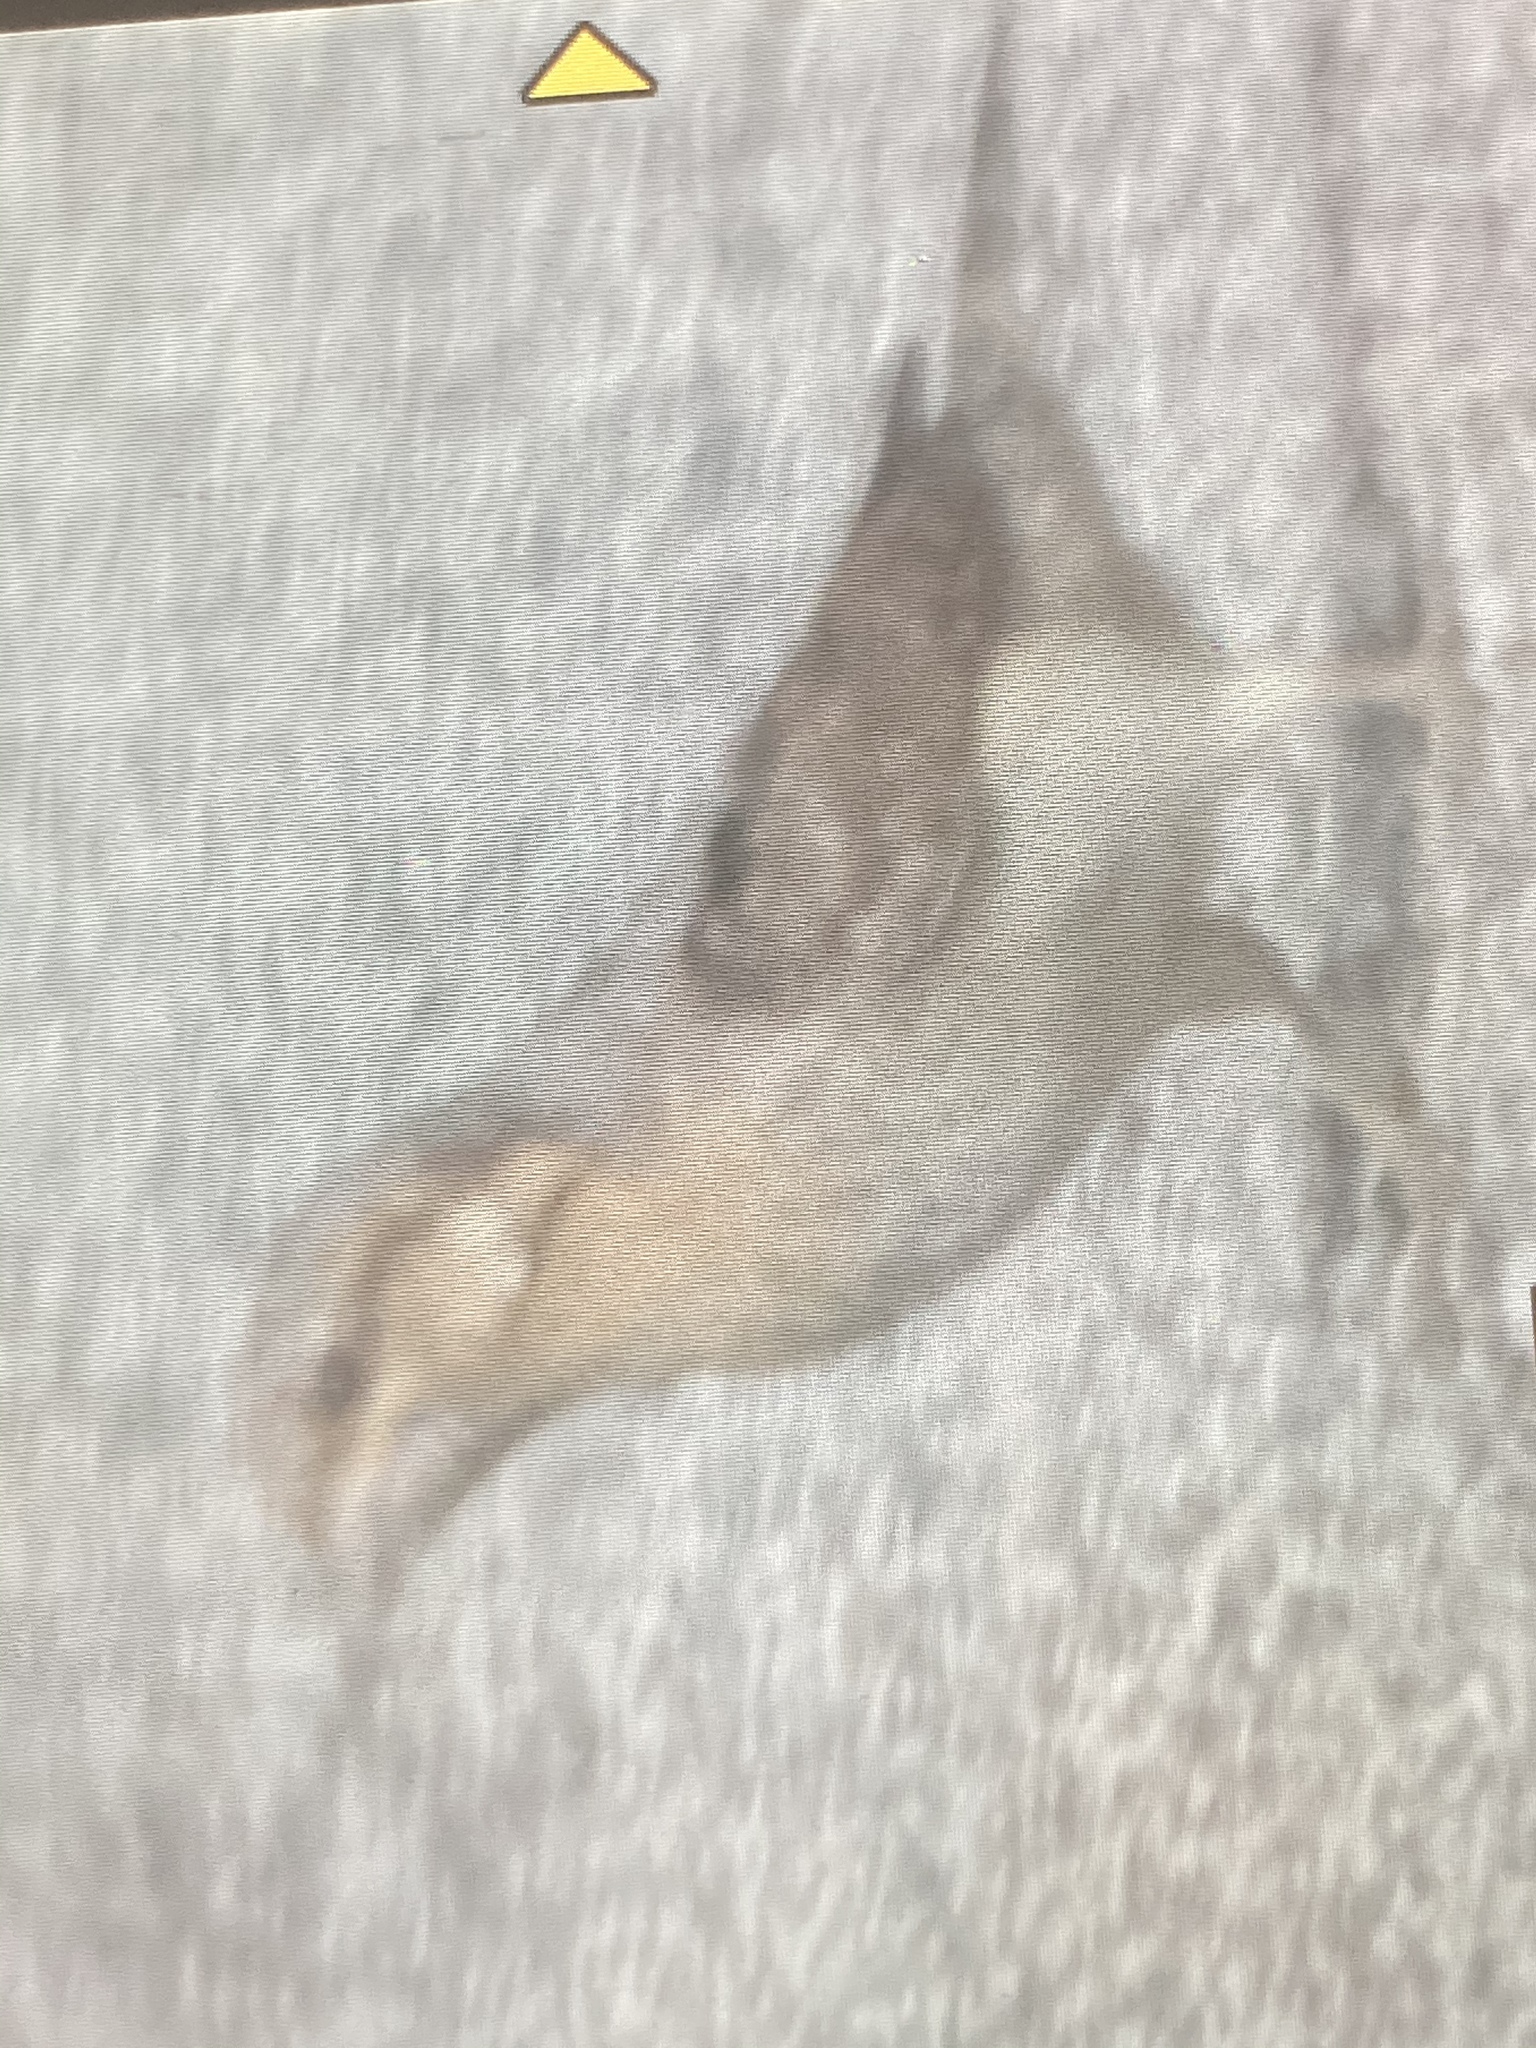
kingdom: Animalia
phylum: Chordata
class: Aves
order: Piciformes
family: Picidae
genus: Jynx
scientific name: Jynx torquilla
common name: Eurasian wryneck
